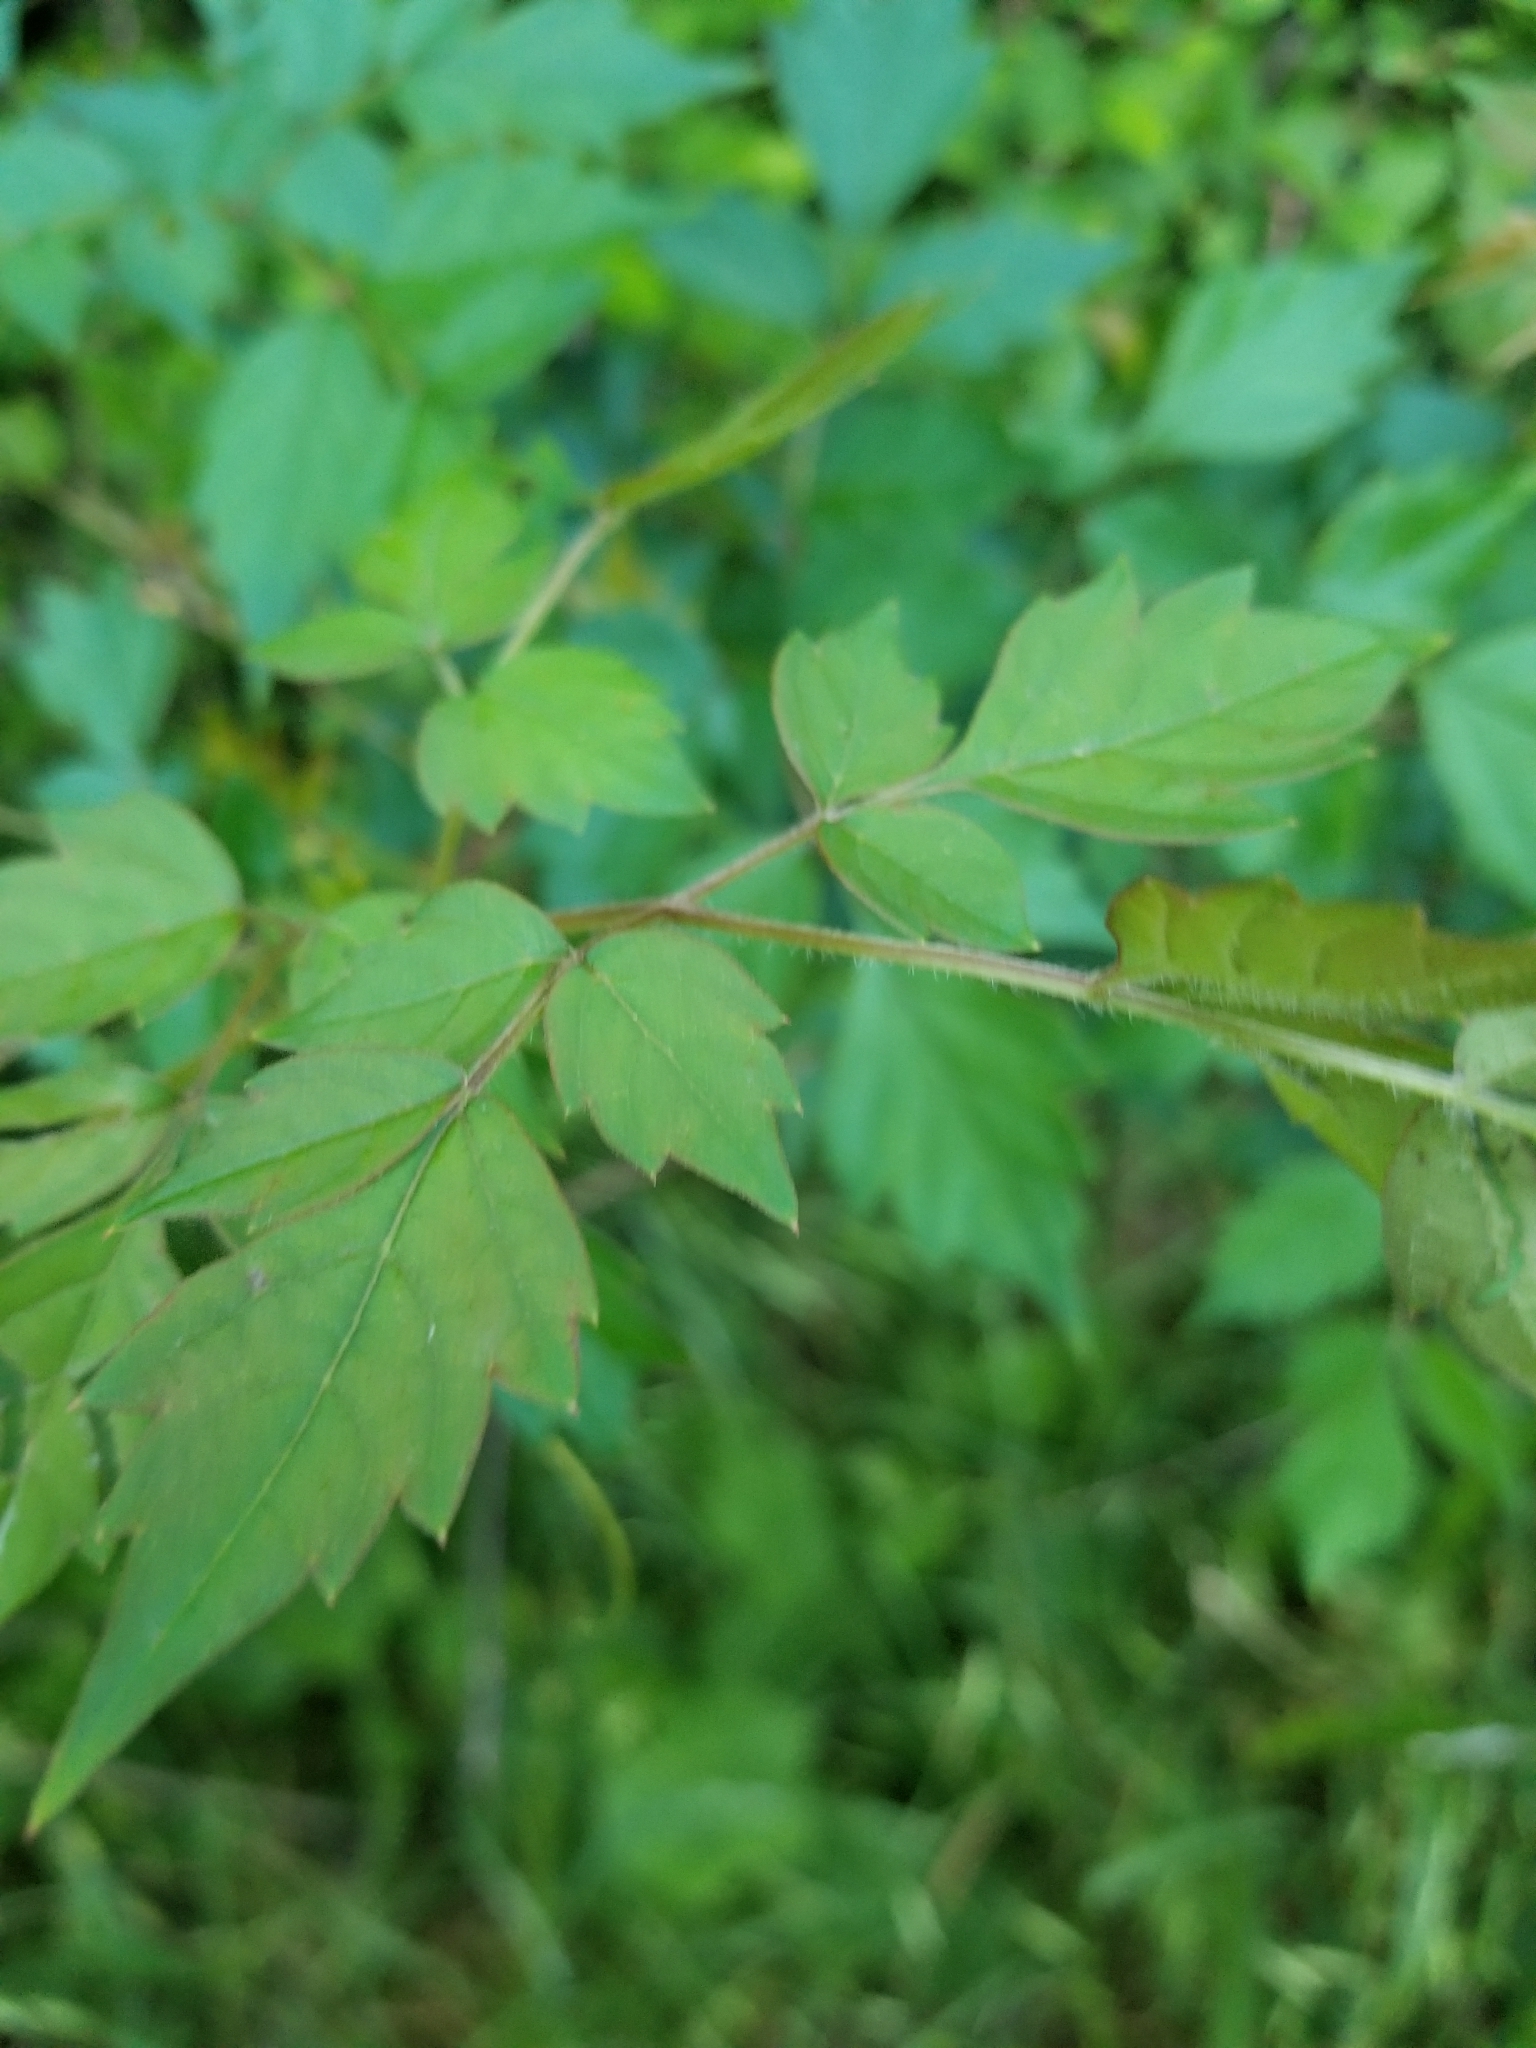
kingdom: Plantae
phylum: Tracheophyta
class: Magnoliopsida
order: Vitales
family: Vitaceae
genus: Nekemias
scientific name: Nekemias arborea
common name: Peppervine
